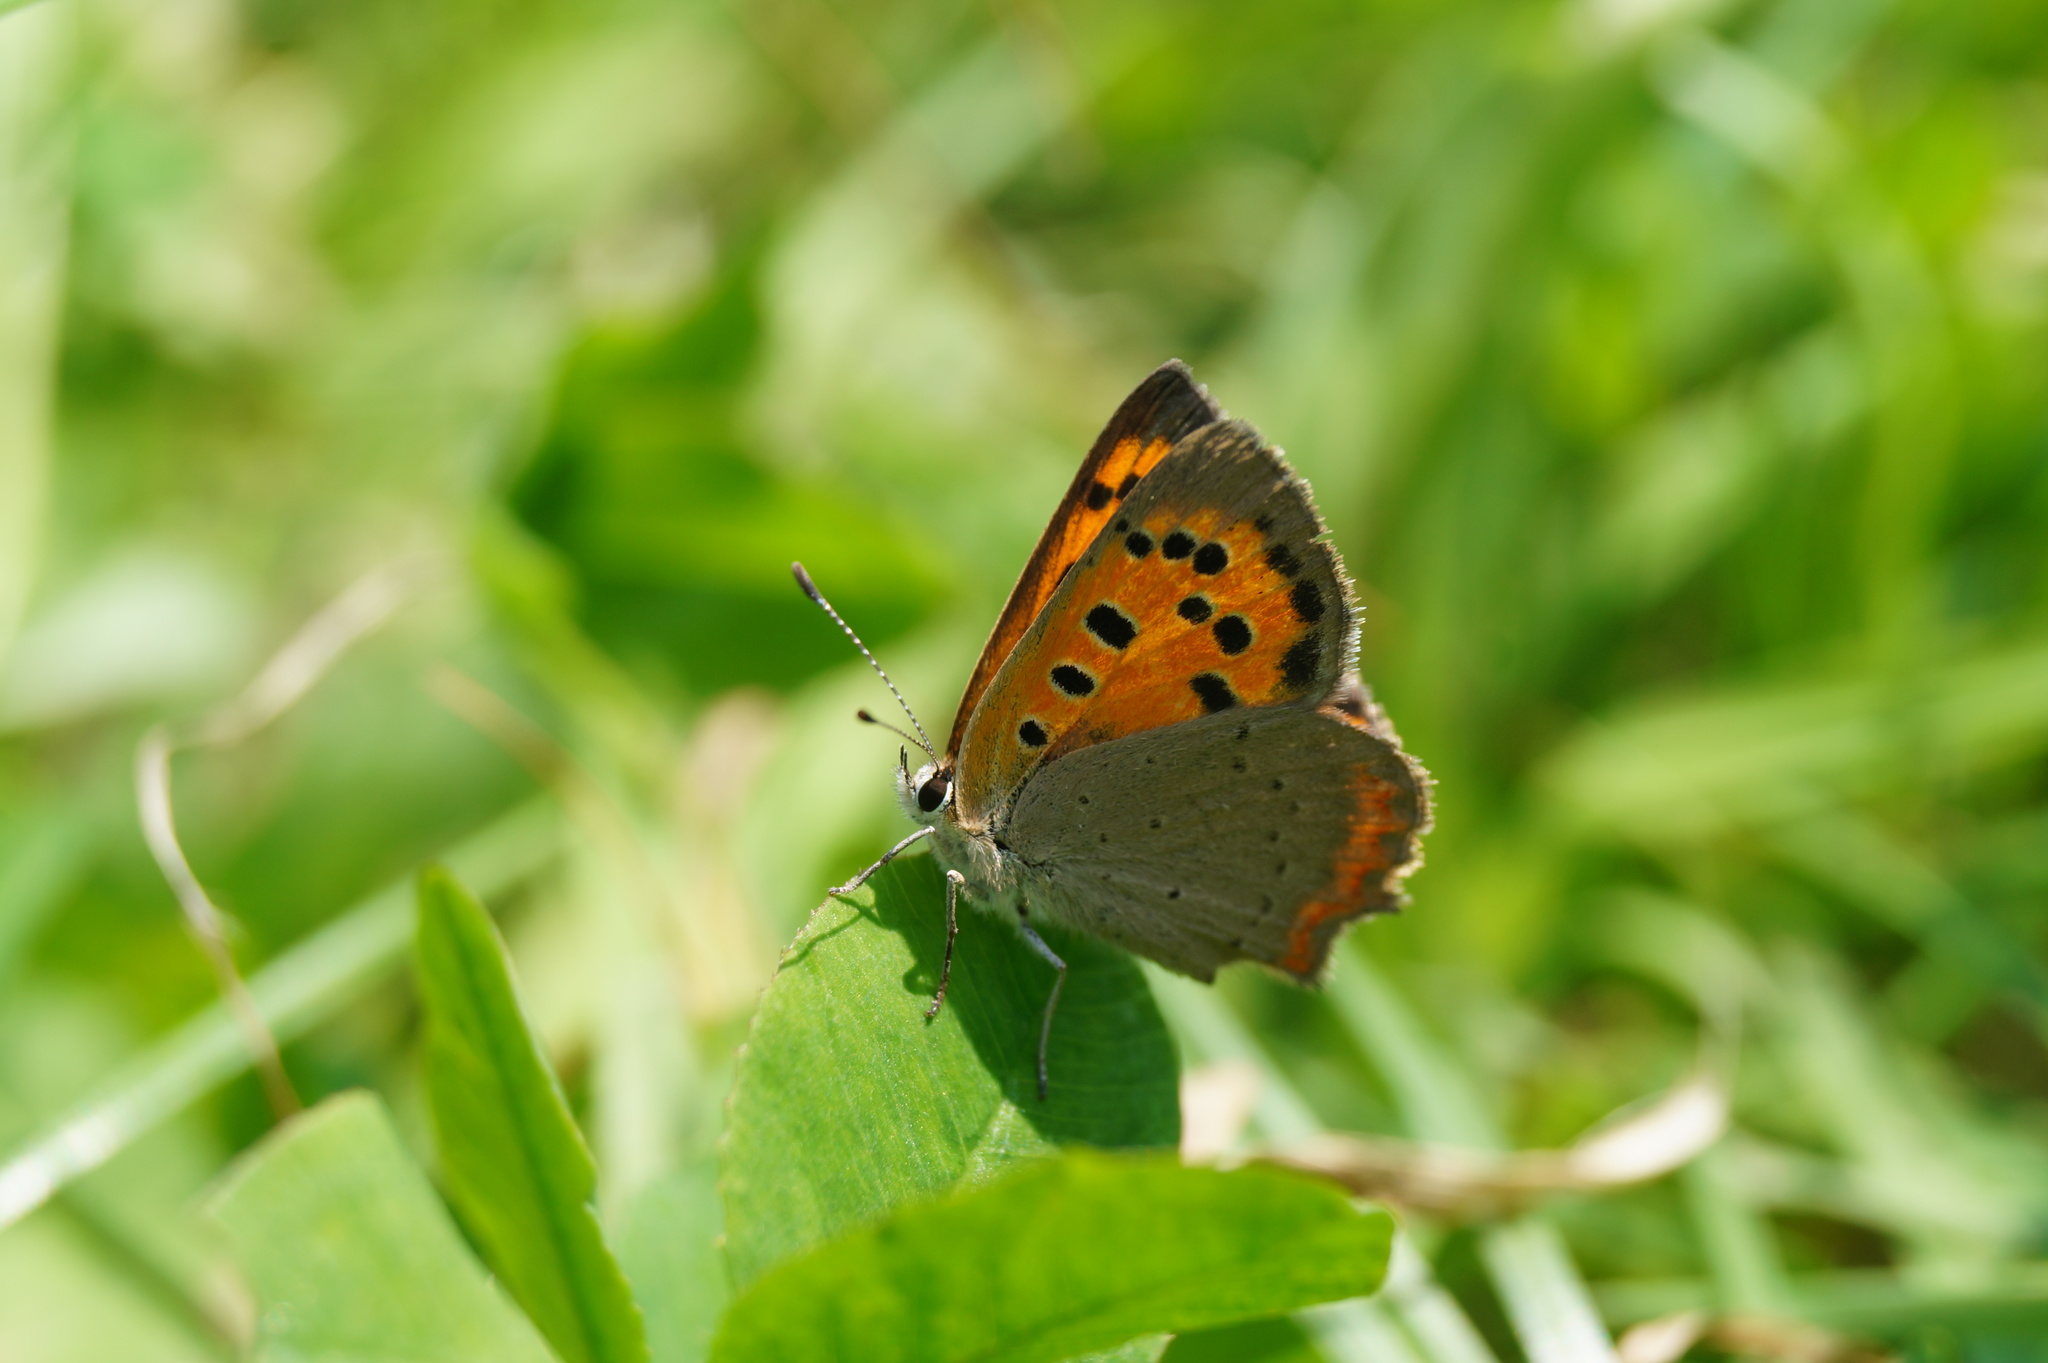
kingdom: Animalia
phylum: Arthropoda
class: Insecta
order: Lepidoptera
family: Lycaenidae
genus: Lycaena
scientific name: Lycaena phlaeas
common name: Small copper
